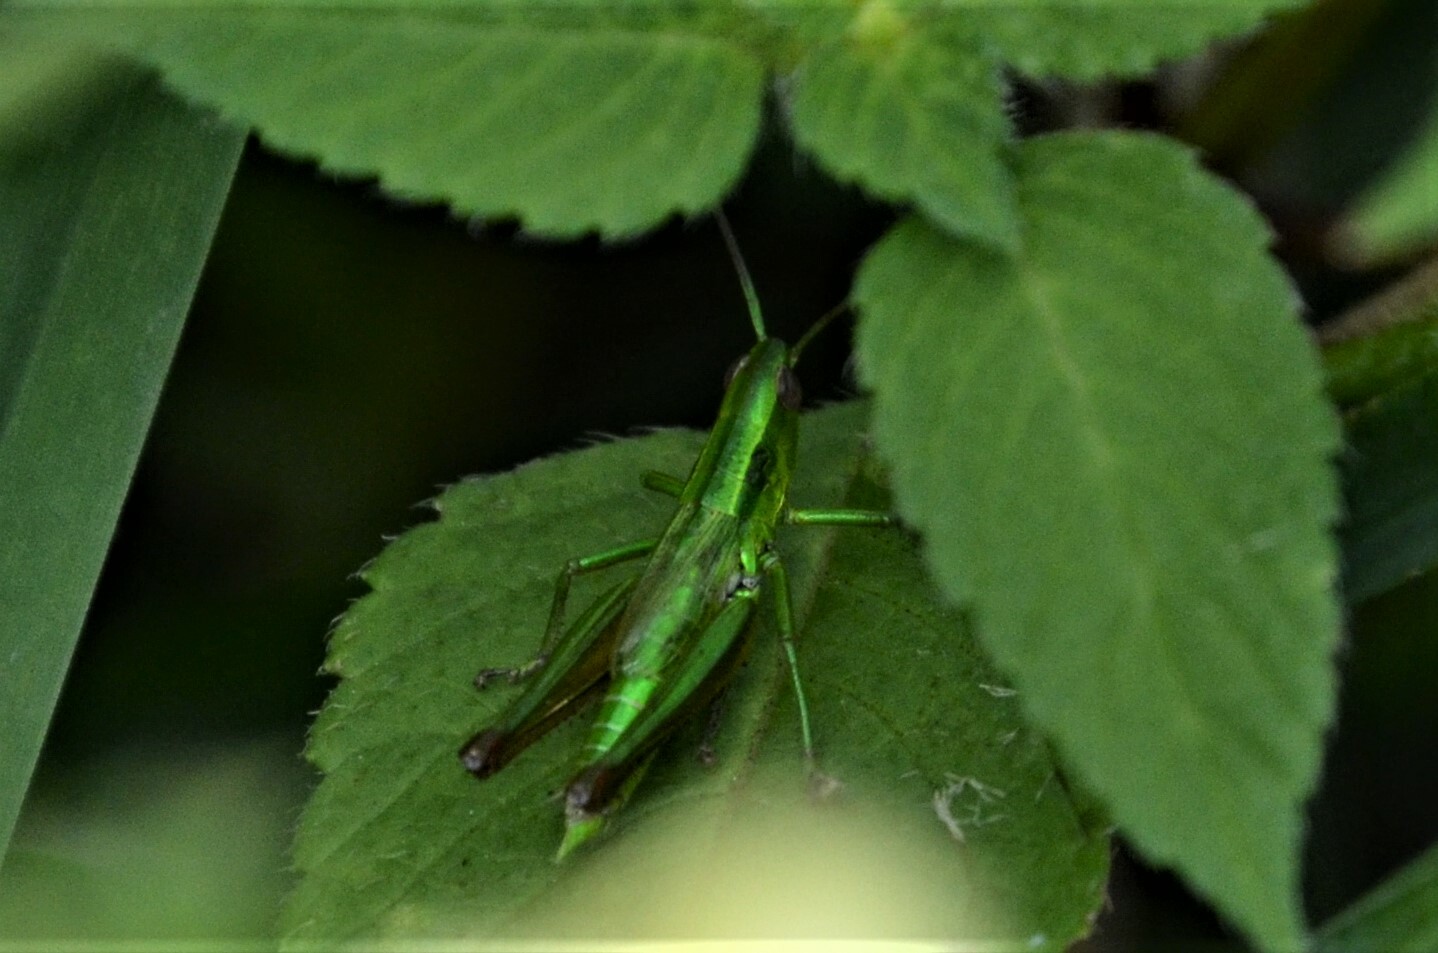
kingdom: Animalia
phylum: Arthropoda
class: Insecta
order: Orthoptera
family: Acrididae
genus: Euthystira
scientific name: Euthystira brachyptera
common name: Small gold grasshopper
